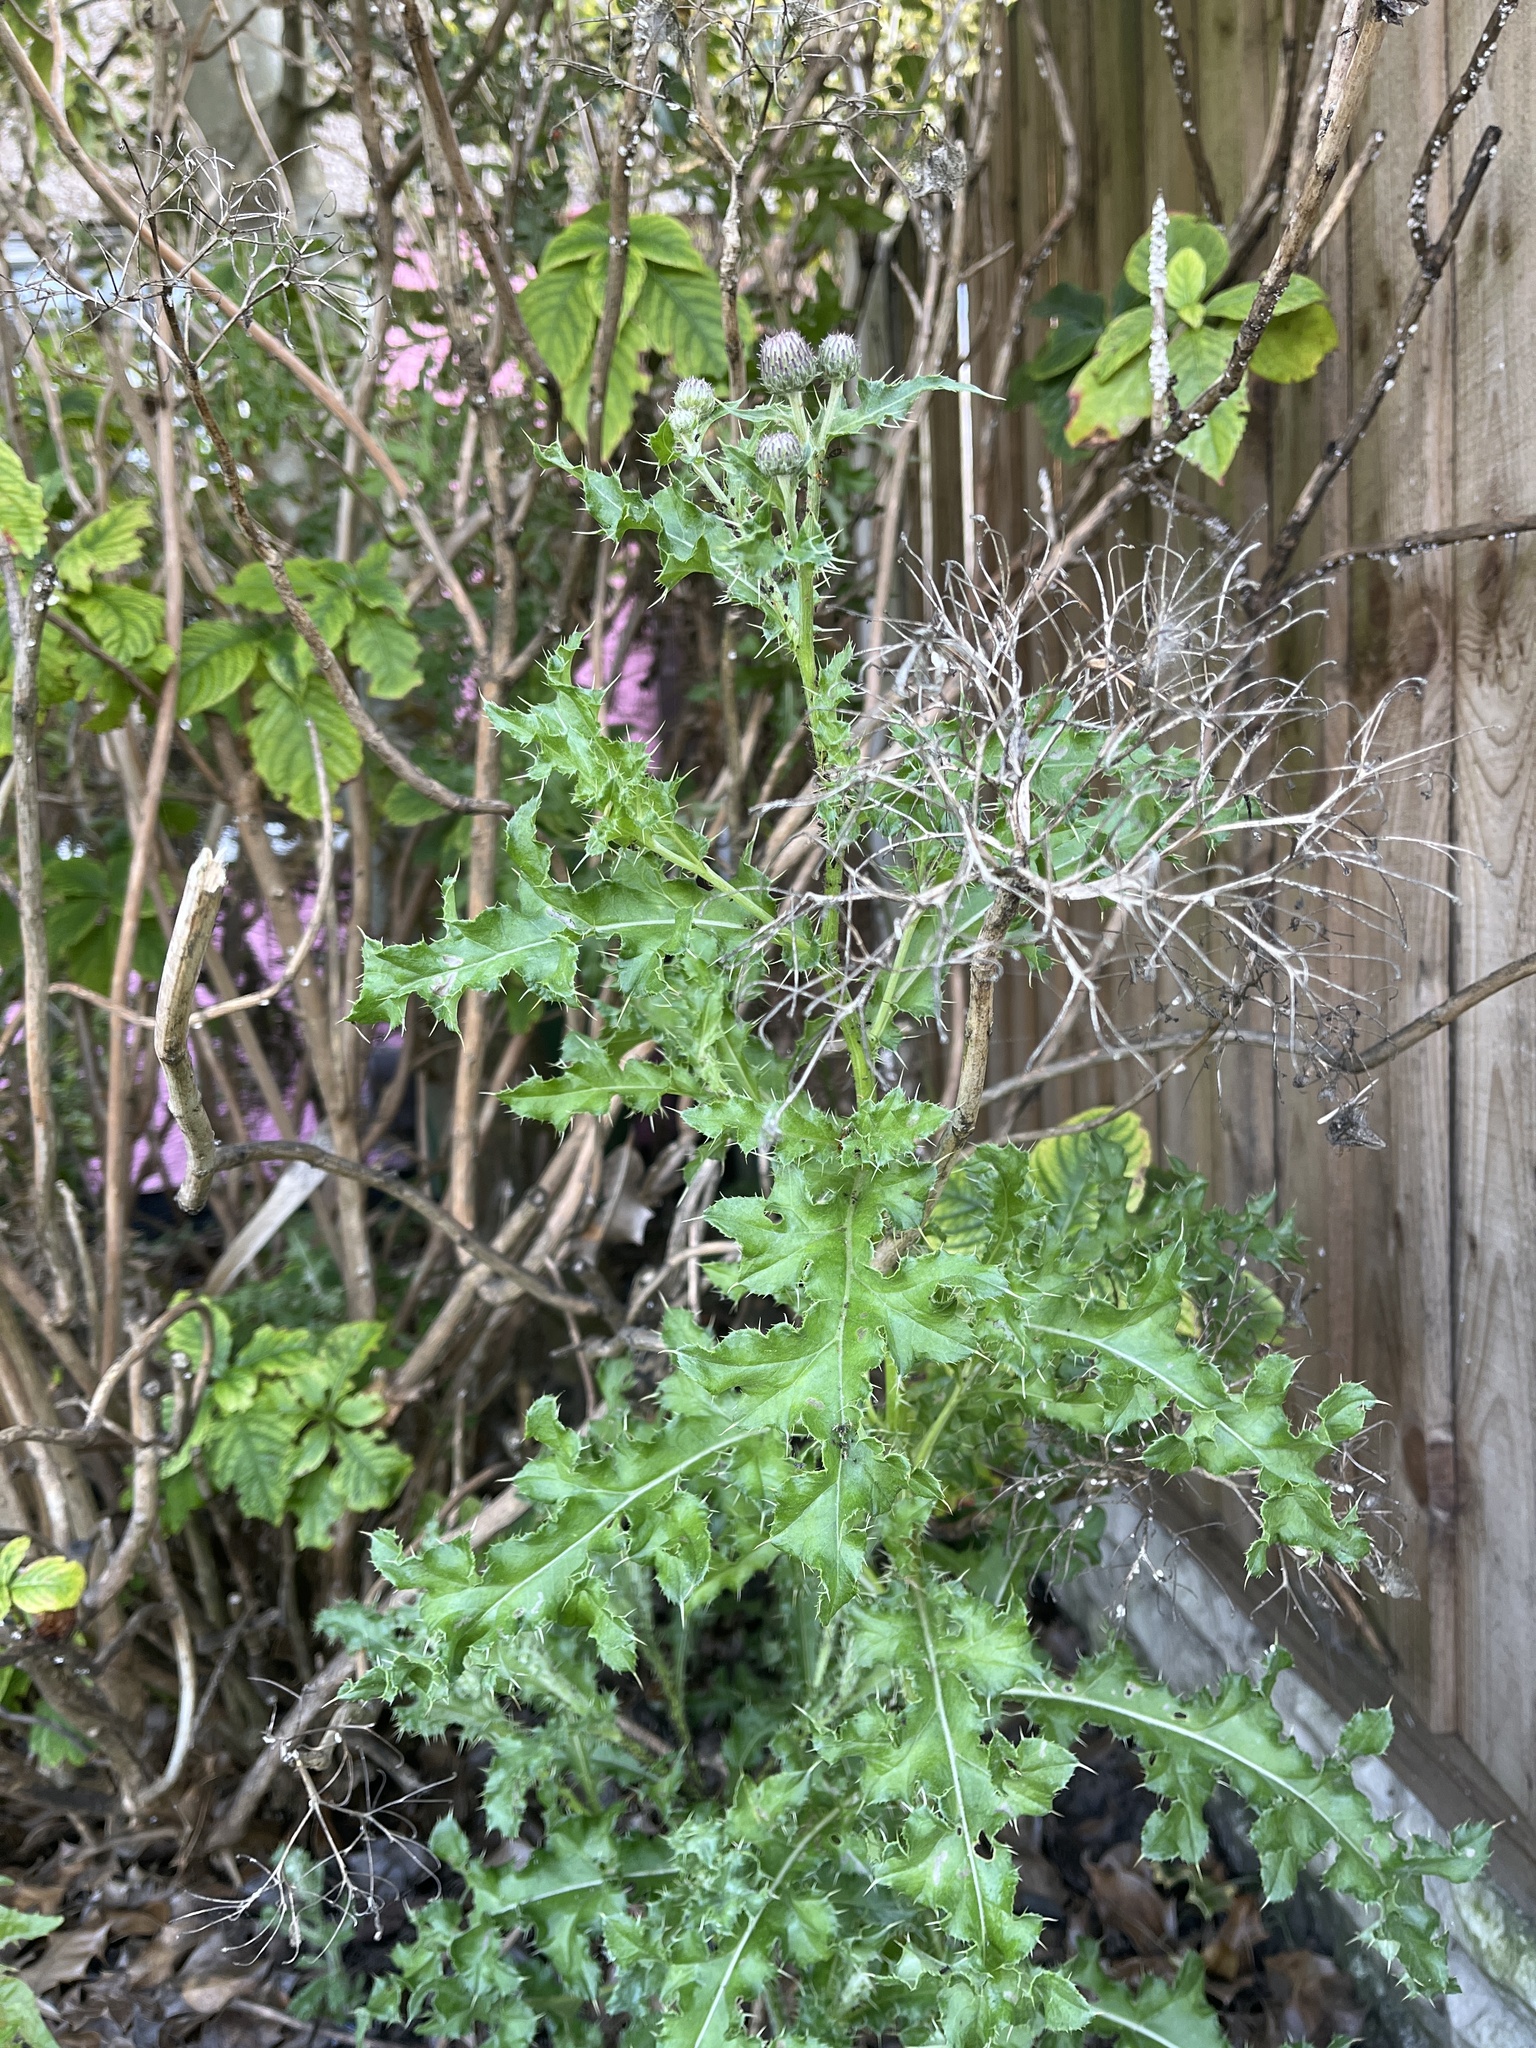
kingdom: Plantae
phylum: Tracheophyta
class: Magnoliopsida
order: Asterales
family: Asteraceae
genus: Cirsium
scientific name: Cirsium arvense
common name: Creeping thistle
